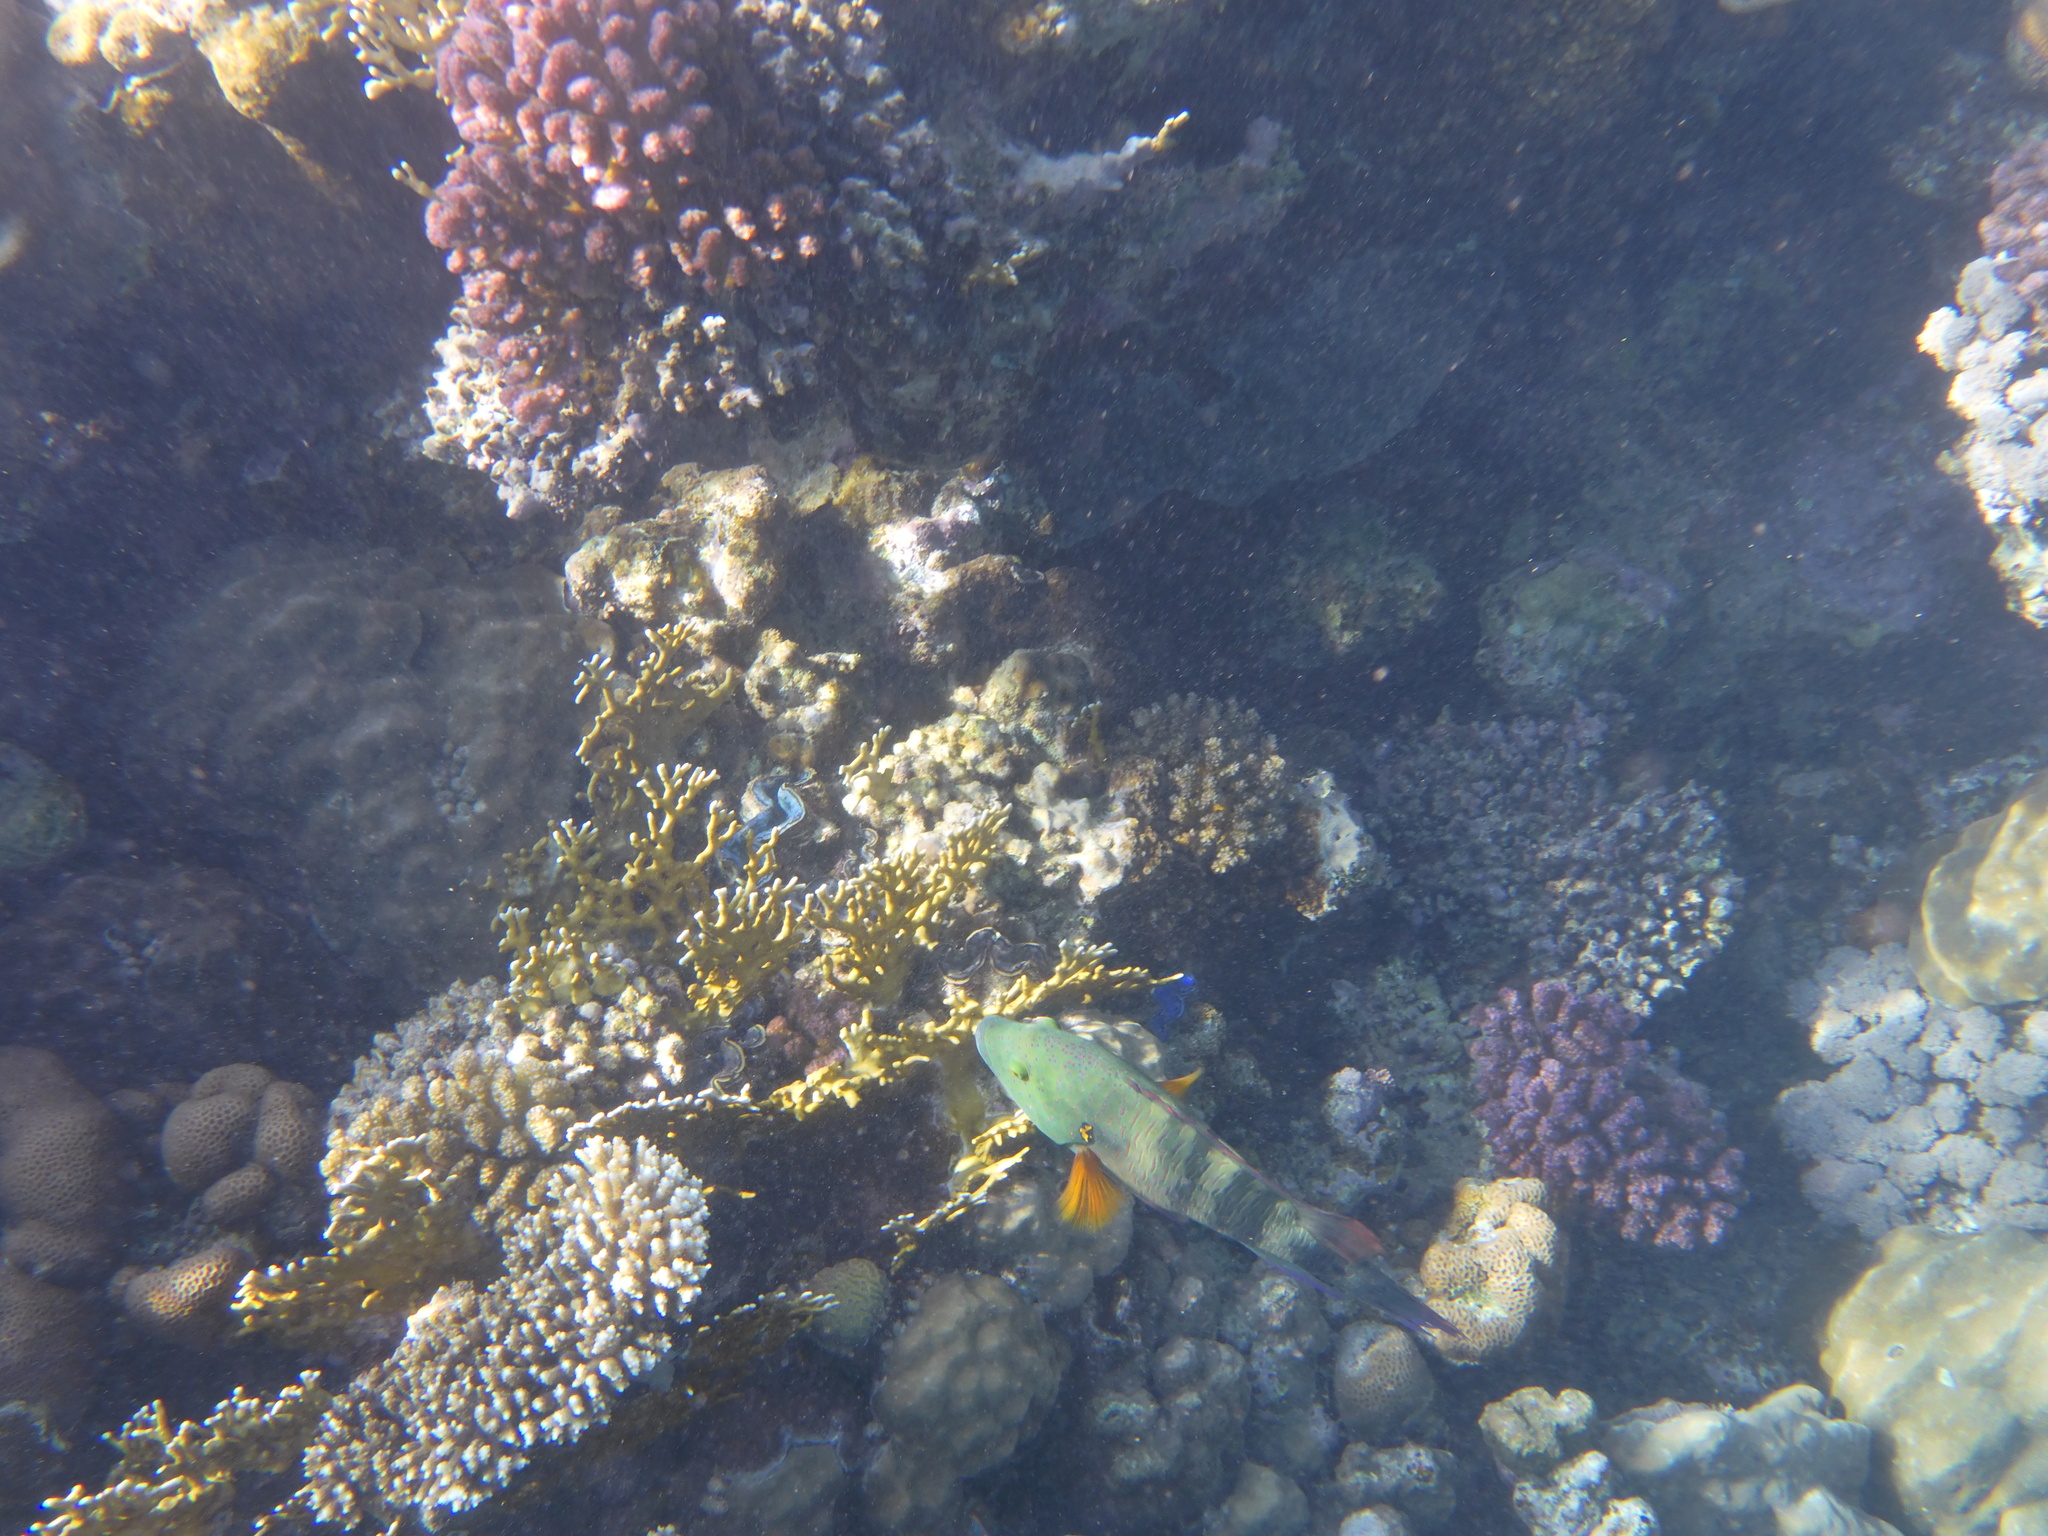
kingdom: Animalia
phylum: Chordata
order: Perciformes
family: Labridae
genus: Cheilinus
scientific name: Cheilinus lunulatus
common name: Broomtail wrasse
